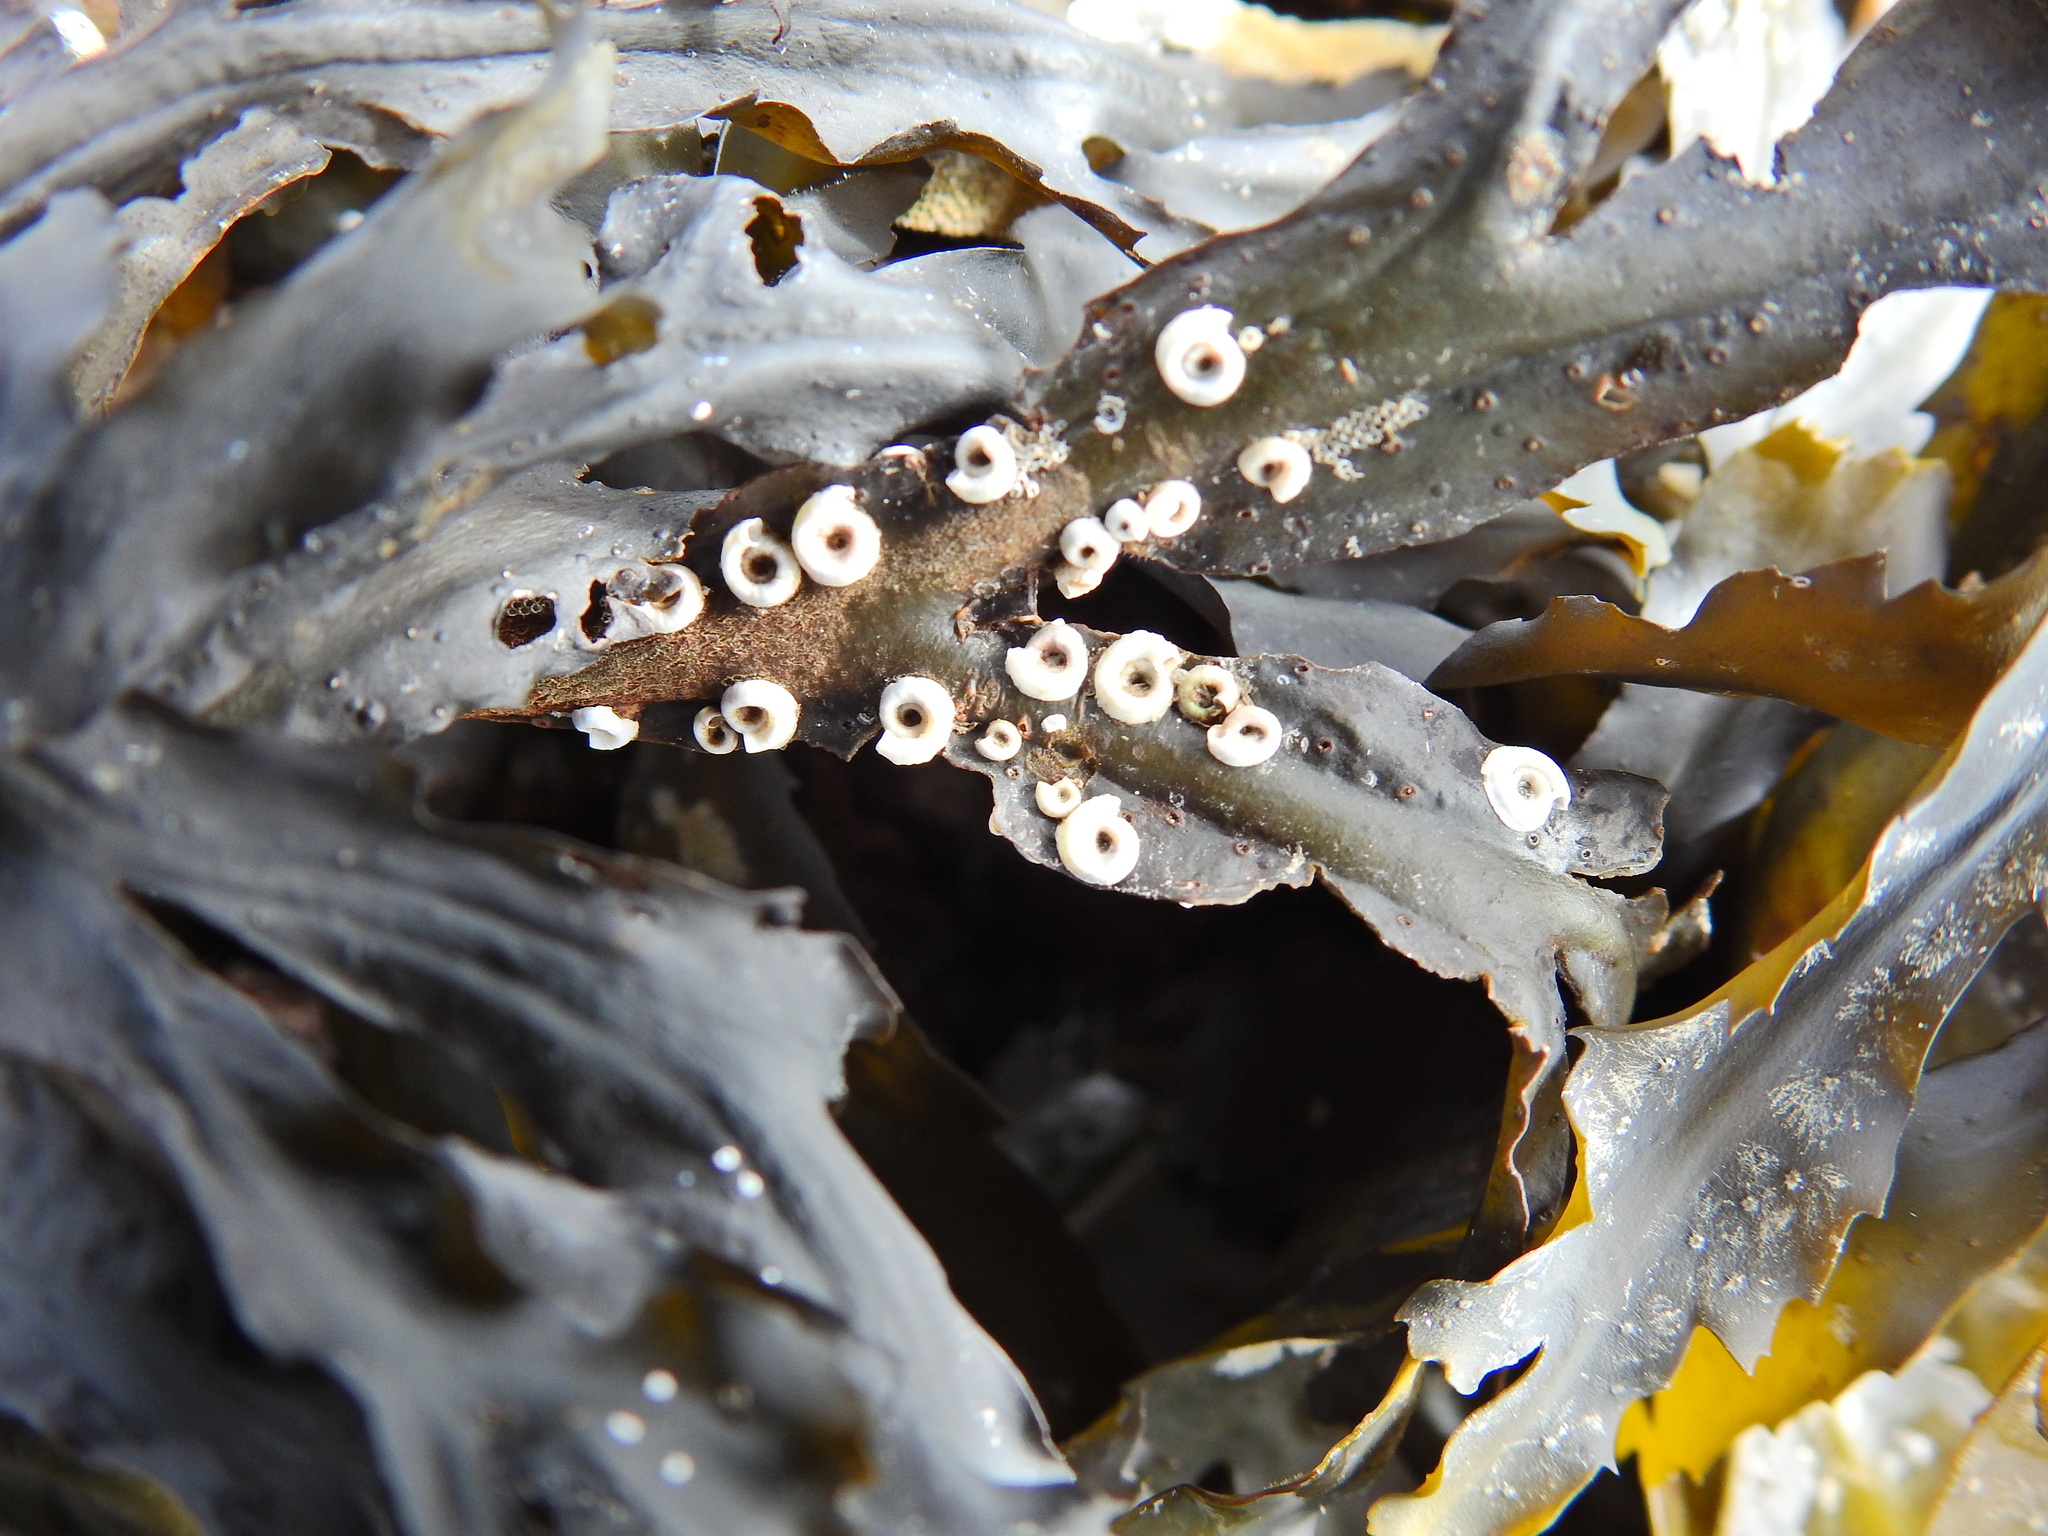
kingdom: Animalia
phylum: Annelida
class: Polychaeta
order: Sabellida
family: Serpulidae
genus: Spirorbis
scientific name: Spirorbis spirorbis
